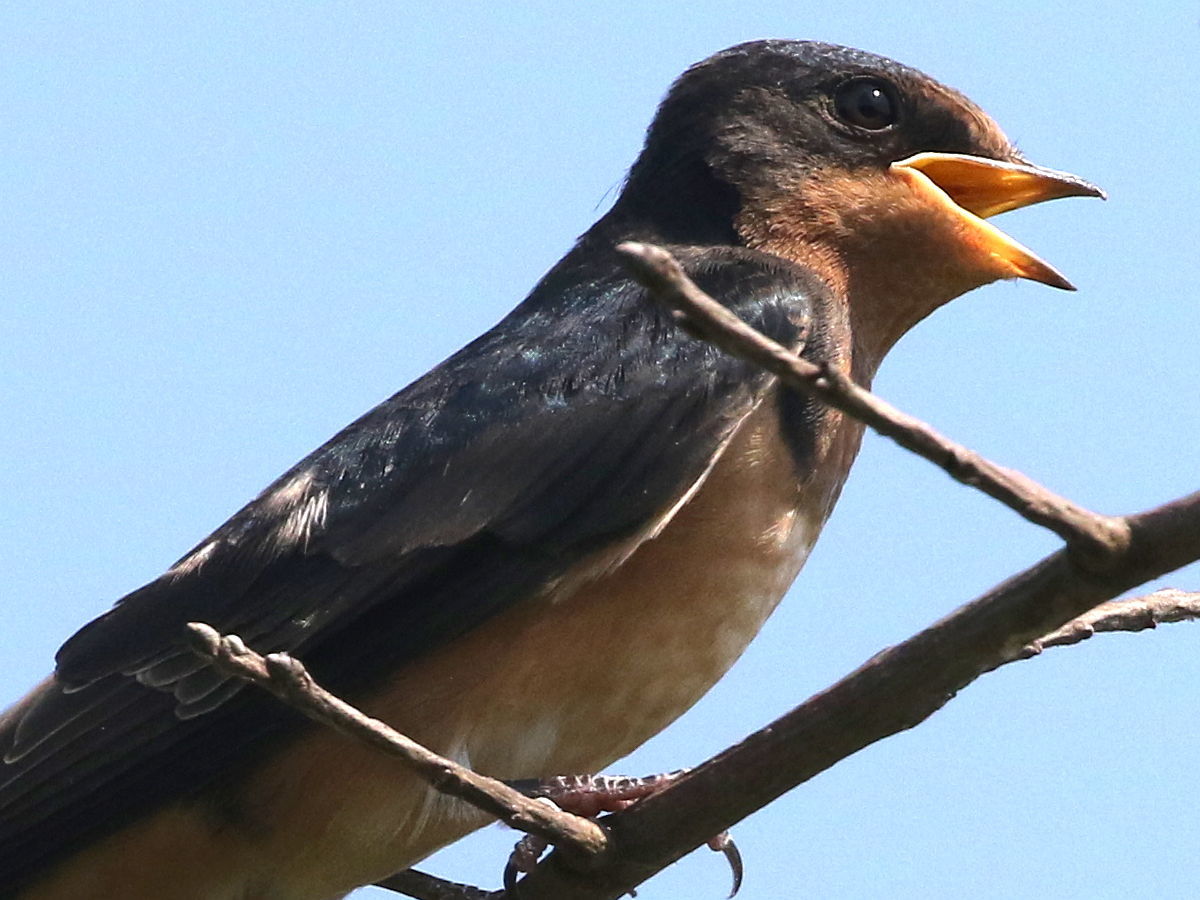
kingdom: Animalia
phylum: Chordata
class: Aves
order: Passeriformes
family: Hirundinidae
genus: Hirundo
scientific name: Hirundo rustica
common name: Barn swallow
